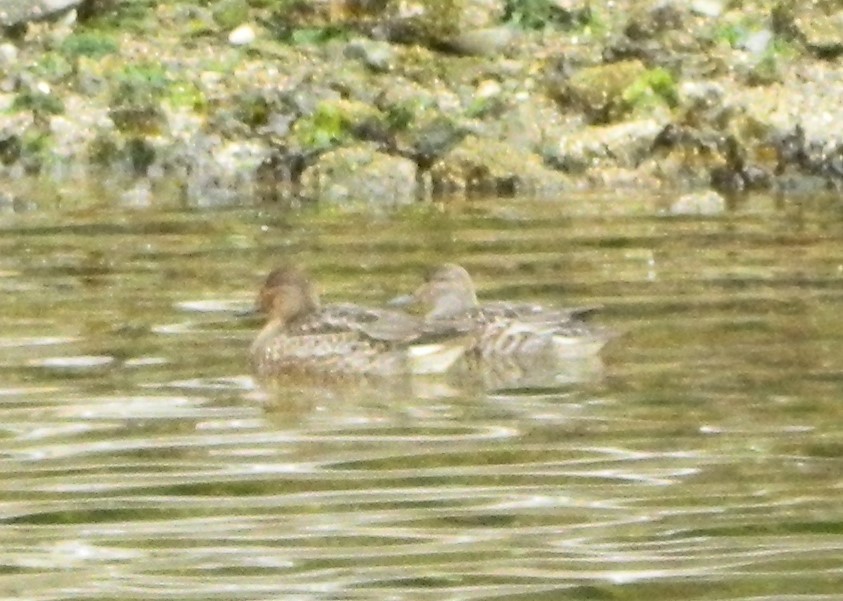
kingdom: Animalia
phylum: Chordata
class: Aves
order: Anseriformes
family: Anatidae
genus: Anas
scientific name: Anas crecca
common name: Eurasian teal
